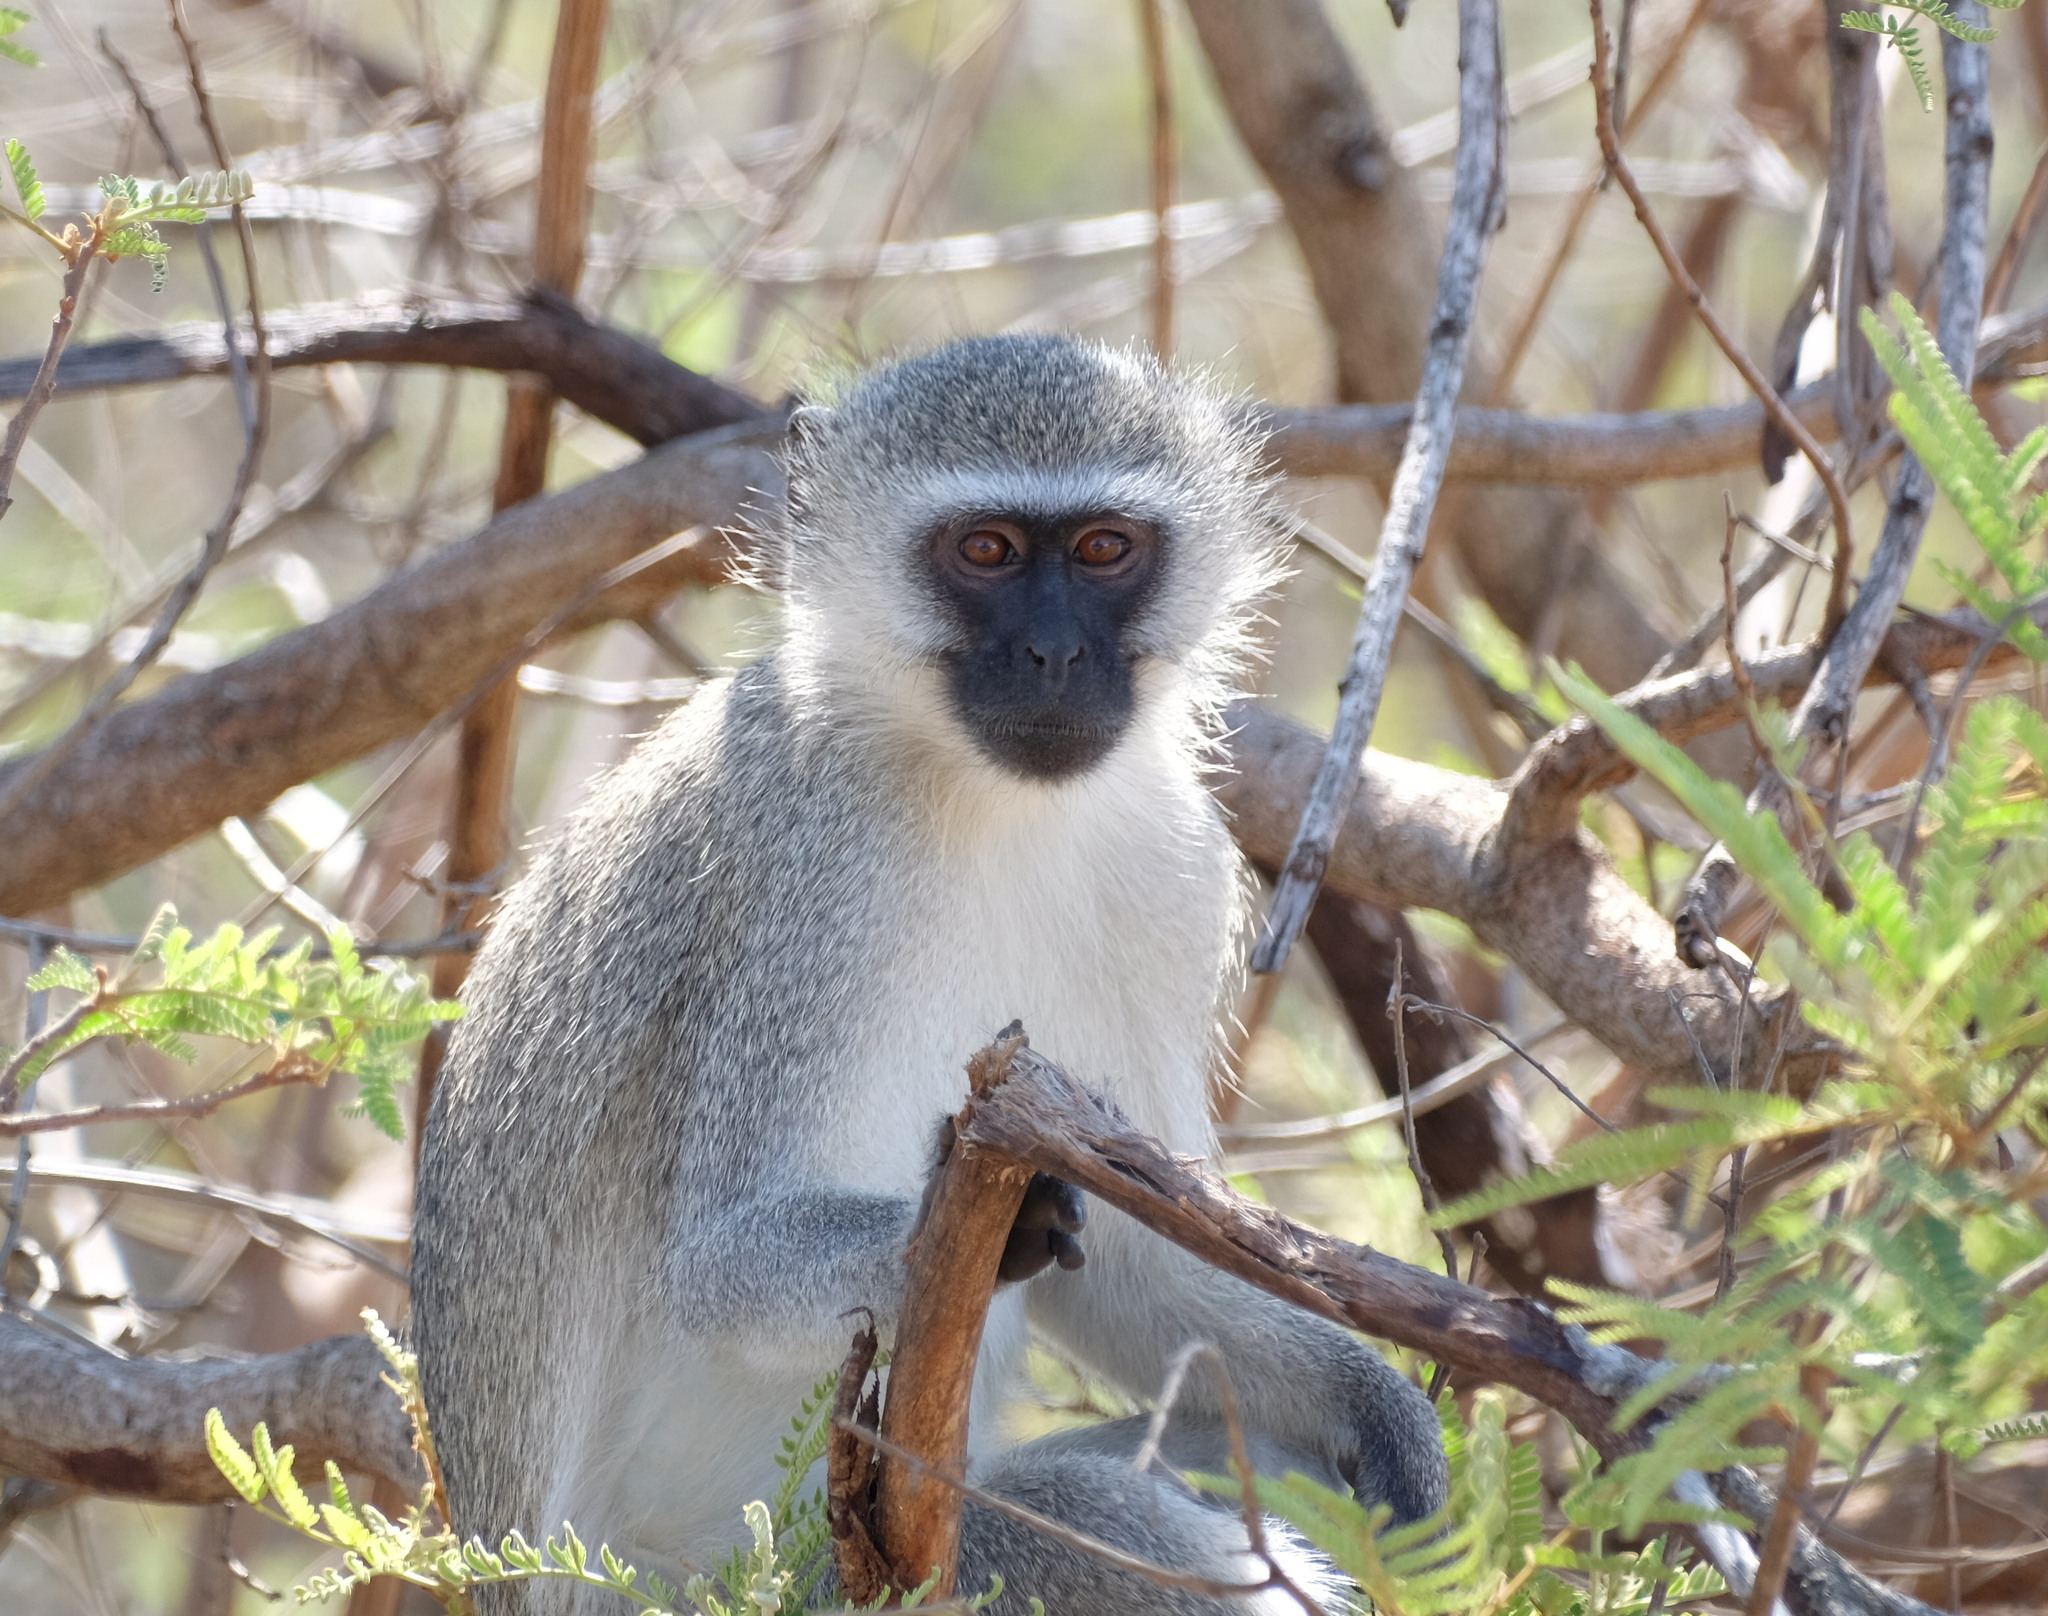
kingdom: Animalia
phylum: Chordata
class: Mammalia
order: Primates
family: Cercopithecidae
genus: Chlorocebus
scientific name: Chlorocebus pygerythrus
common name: Vervet monkey
